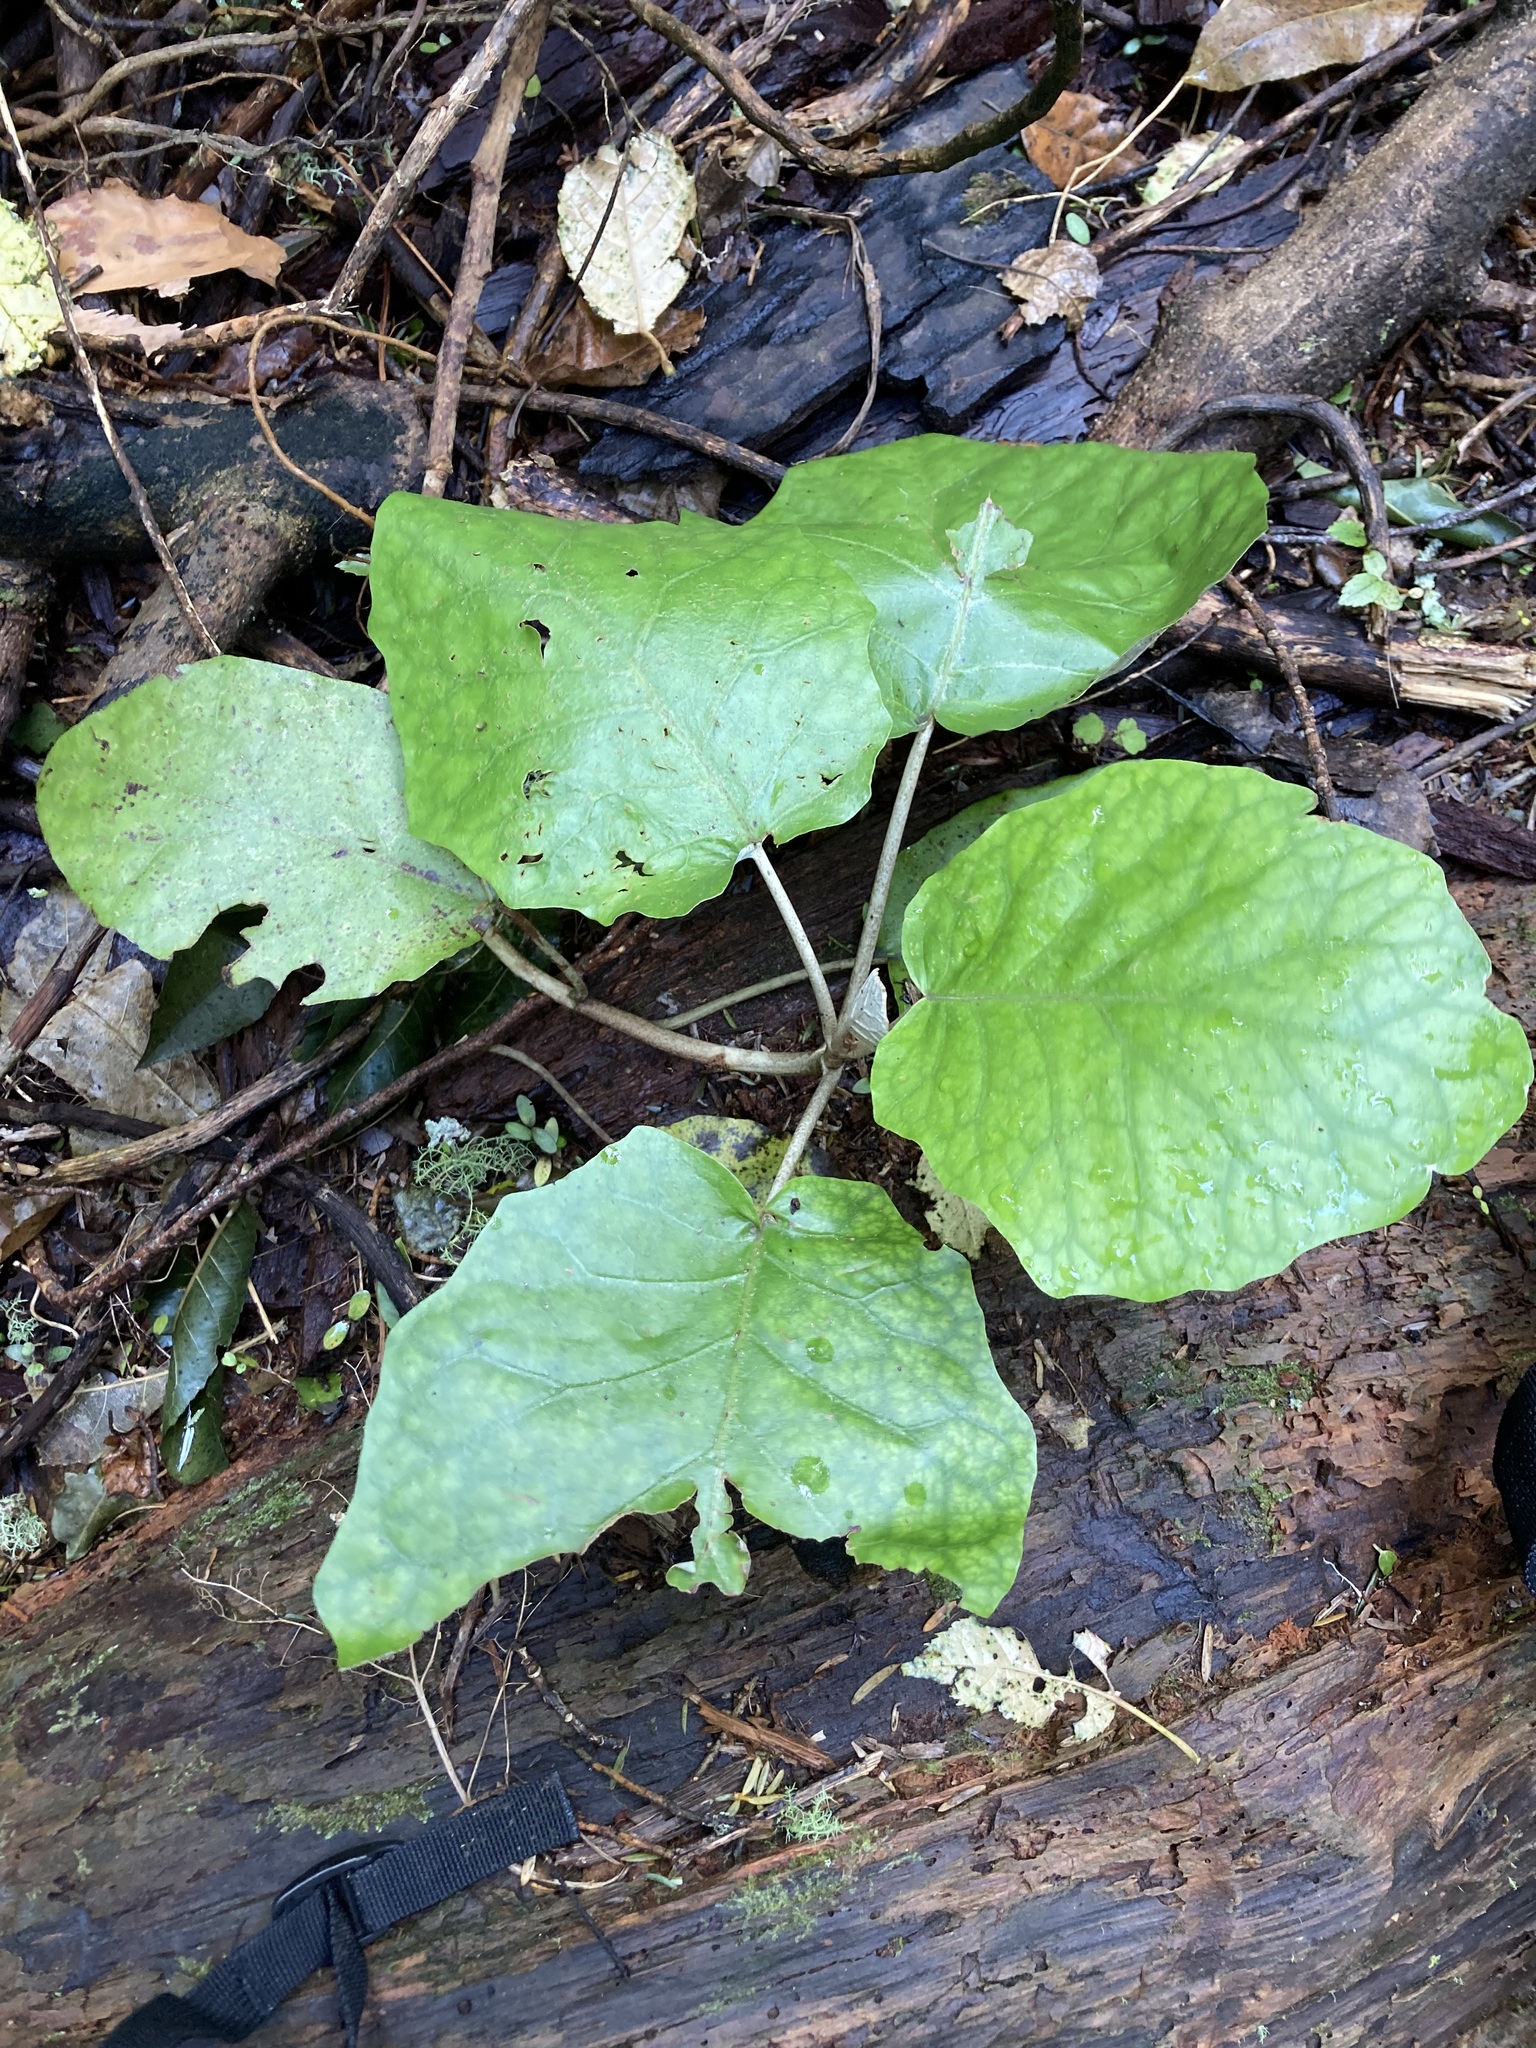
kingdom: Plantae
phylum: Tracheophyta
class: Magnoliopsida
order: Asterales
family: Asteraceae
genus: Brachyglottis
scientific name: Brachyglottis repanda
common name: Hedge ragwort
